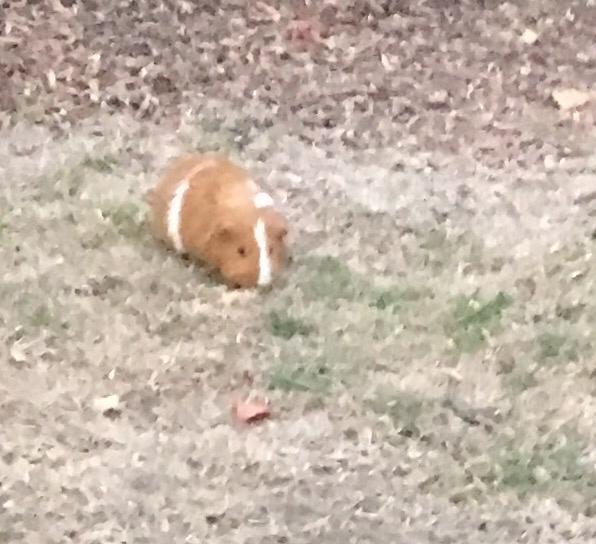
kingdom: Animalia
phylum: Chordata
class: Mammalia
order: Rodentia
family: Caviidae
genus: Cavia
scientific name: Cavia porcellus
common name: Guinea pig
